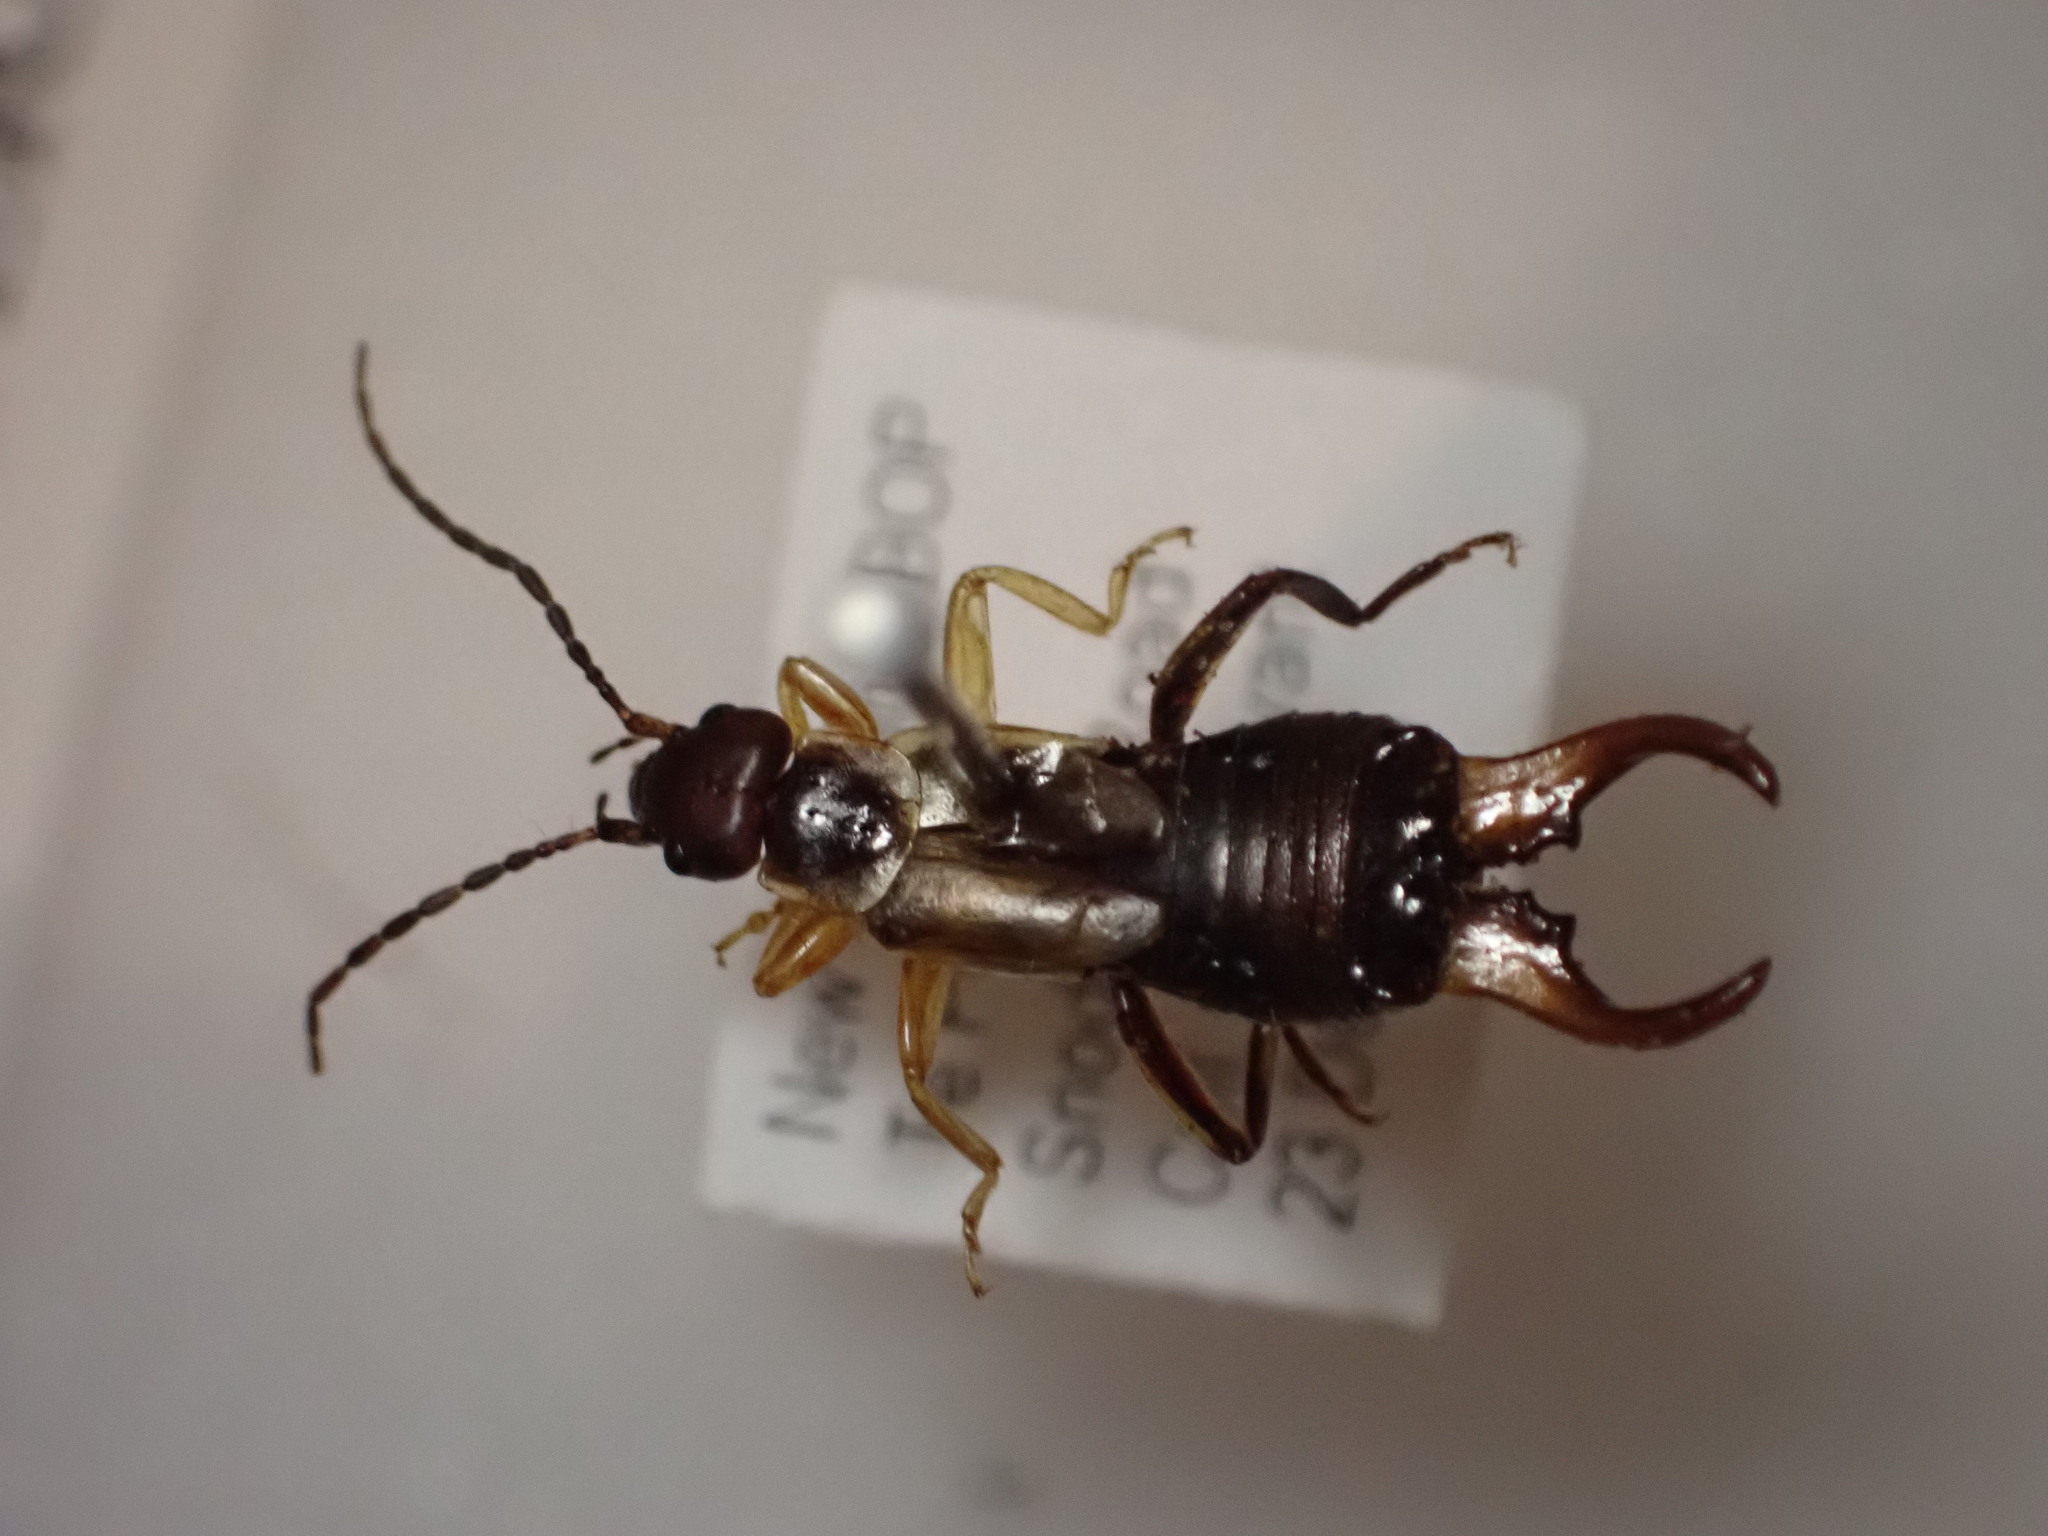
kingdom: Animalia
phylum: Arthropoda
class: Insecta
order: Dermaptera
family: Forficulidae
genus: Forficula
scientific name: Forficula
